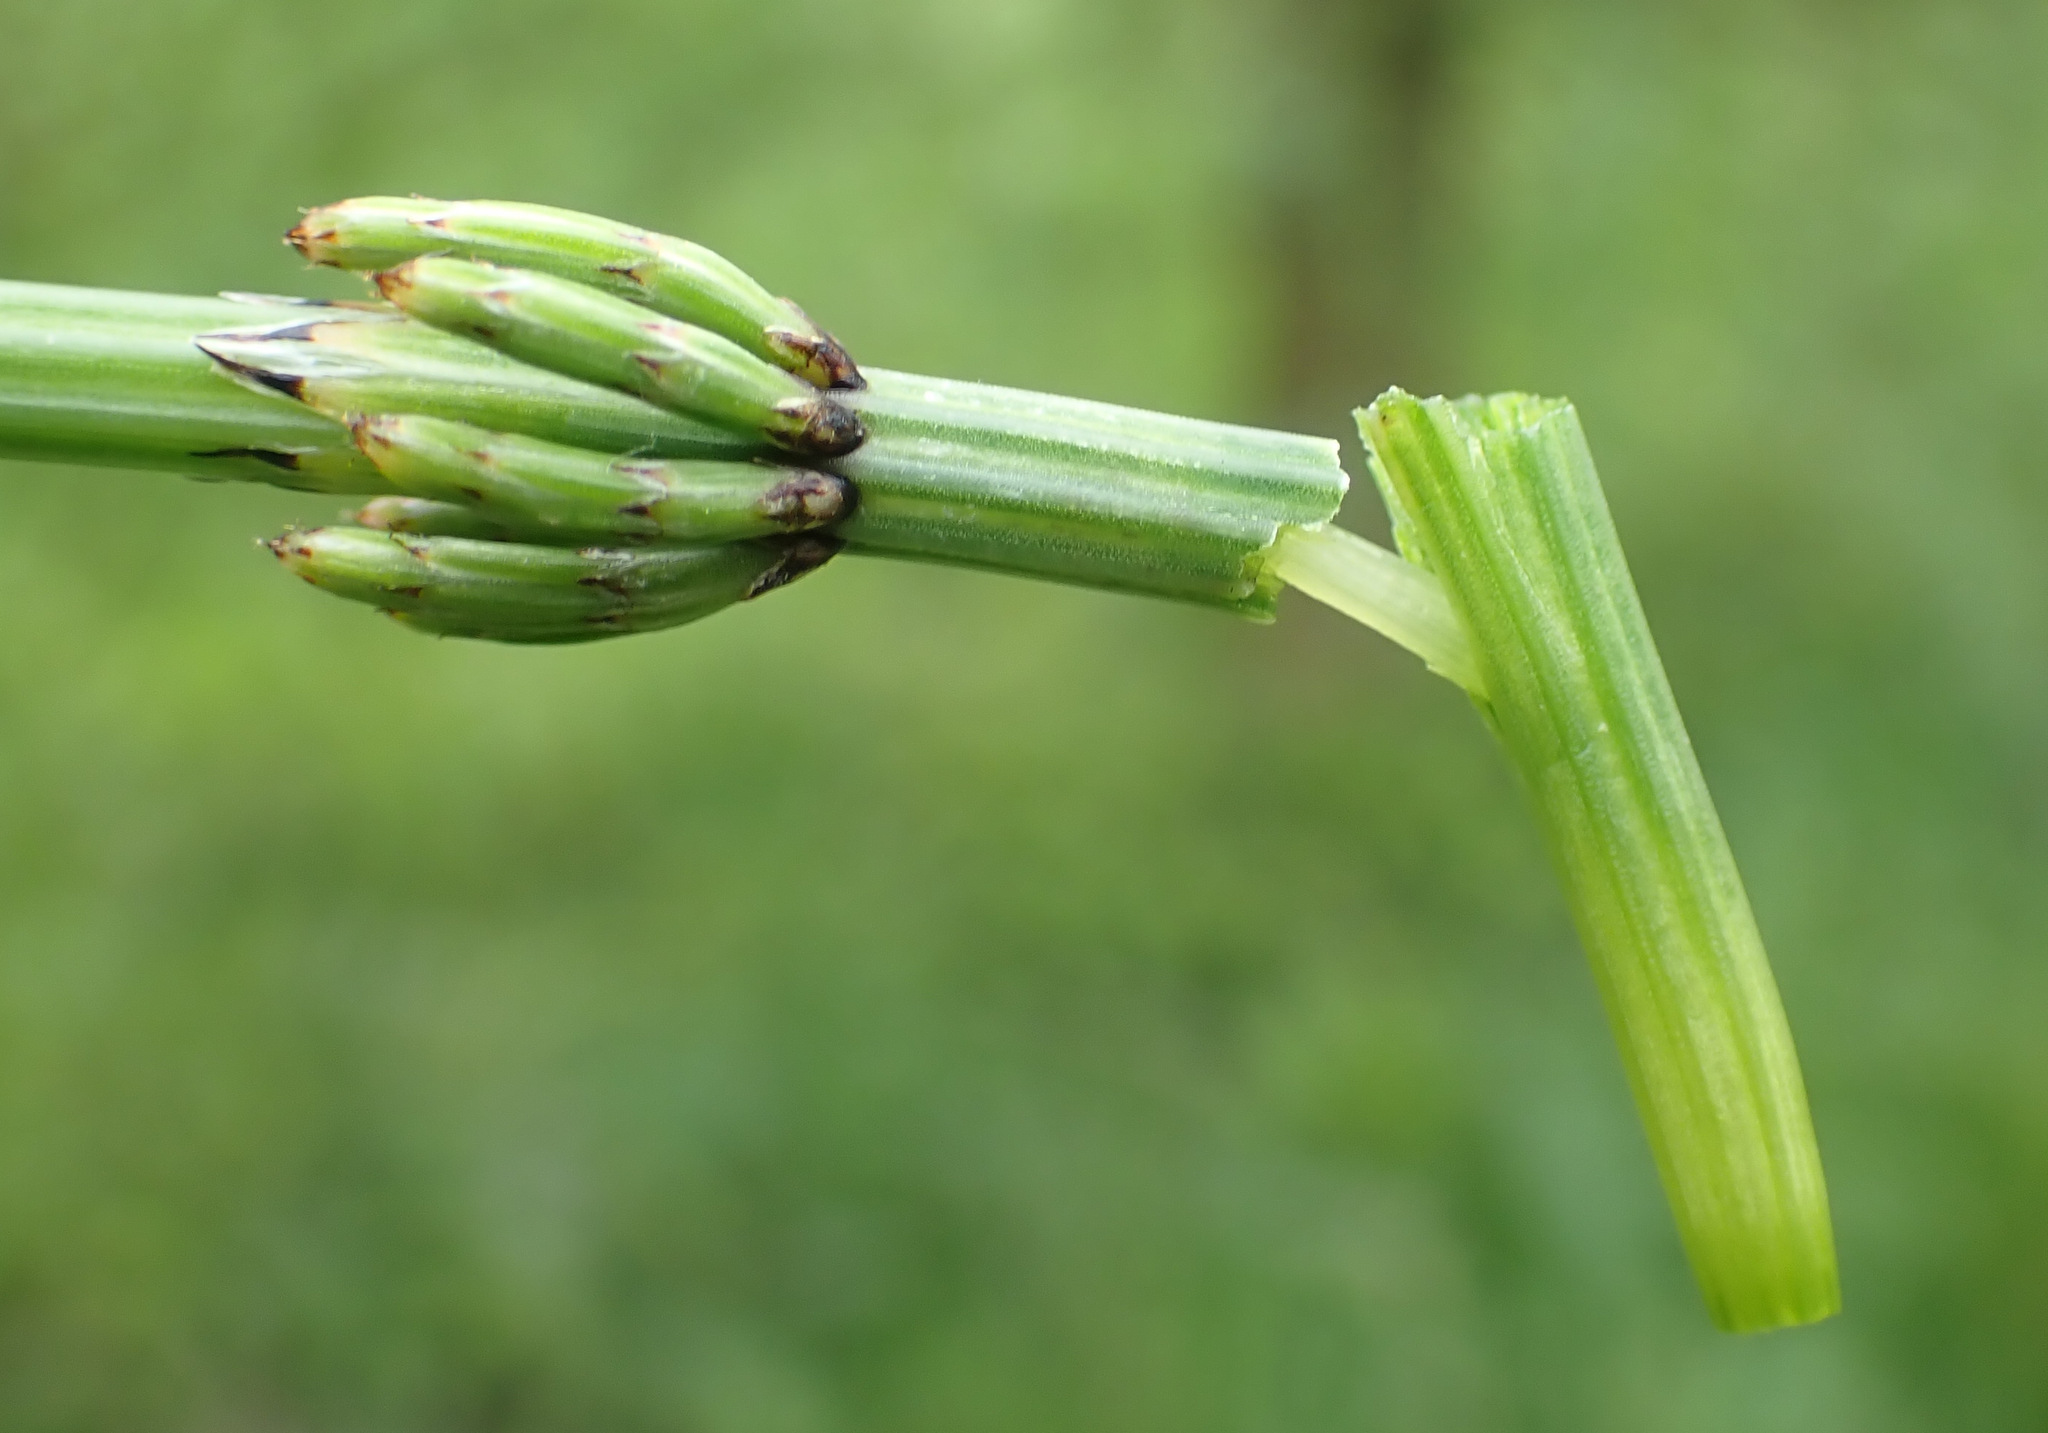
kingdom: Plantae
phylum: Tracheophyta
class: Polypodiopsida
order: Equisetales
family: Equisetaceae
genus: Equisetum
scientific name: Equisetum palustre
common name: Marsh horsetail
